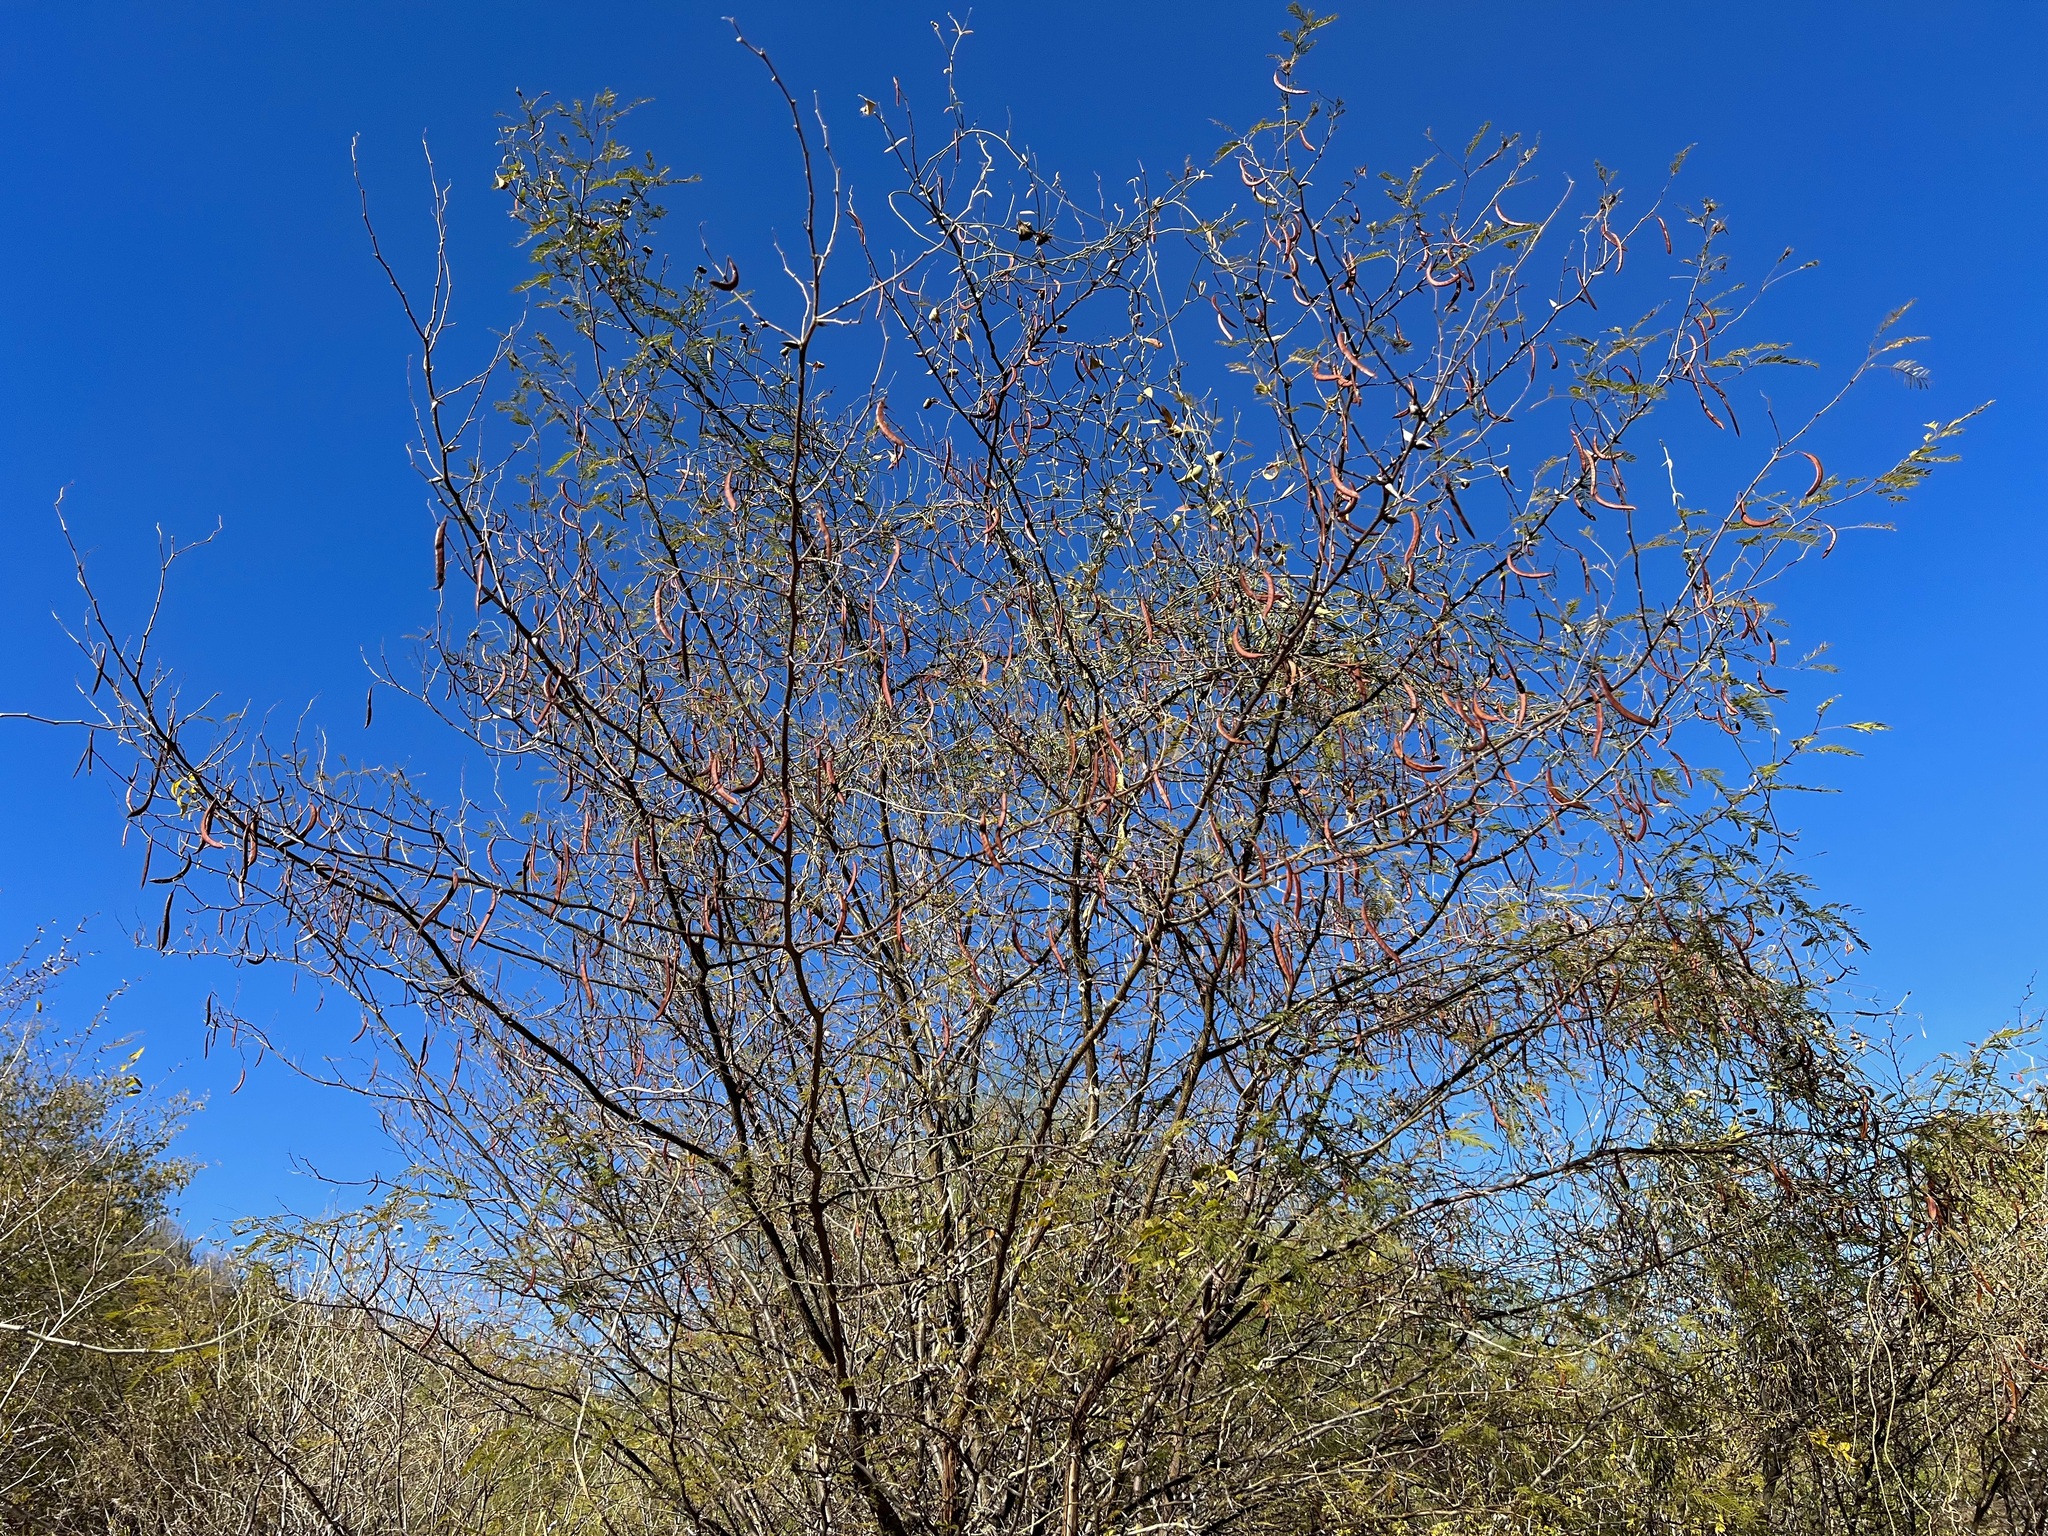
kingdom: Plantae
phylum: Tracheophyta
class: Magnoliopsida
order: Fabales
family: Fabaceae
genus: Vachellia
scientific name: Vachellia campechiana
